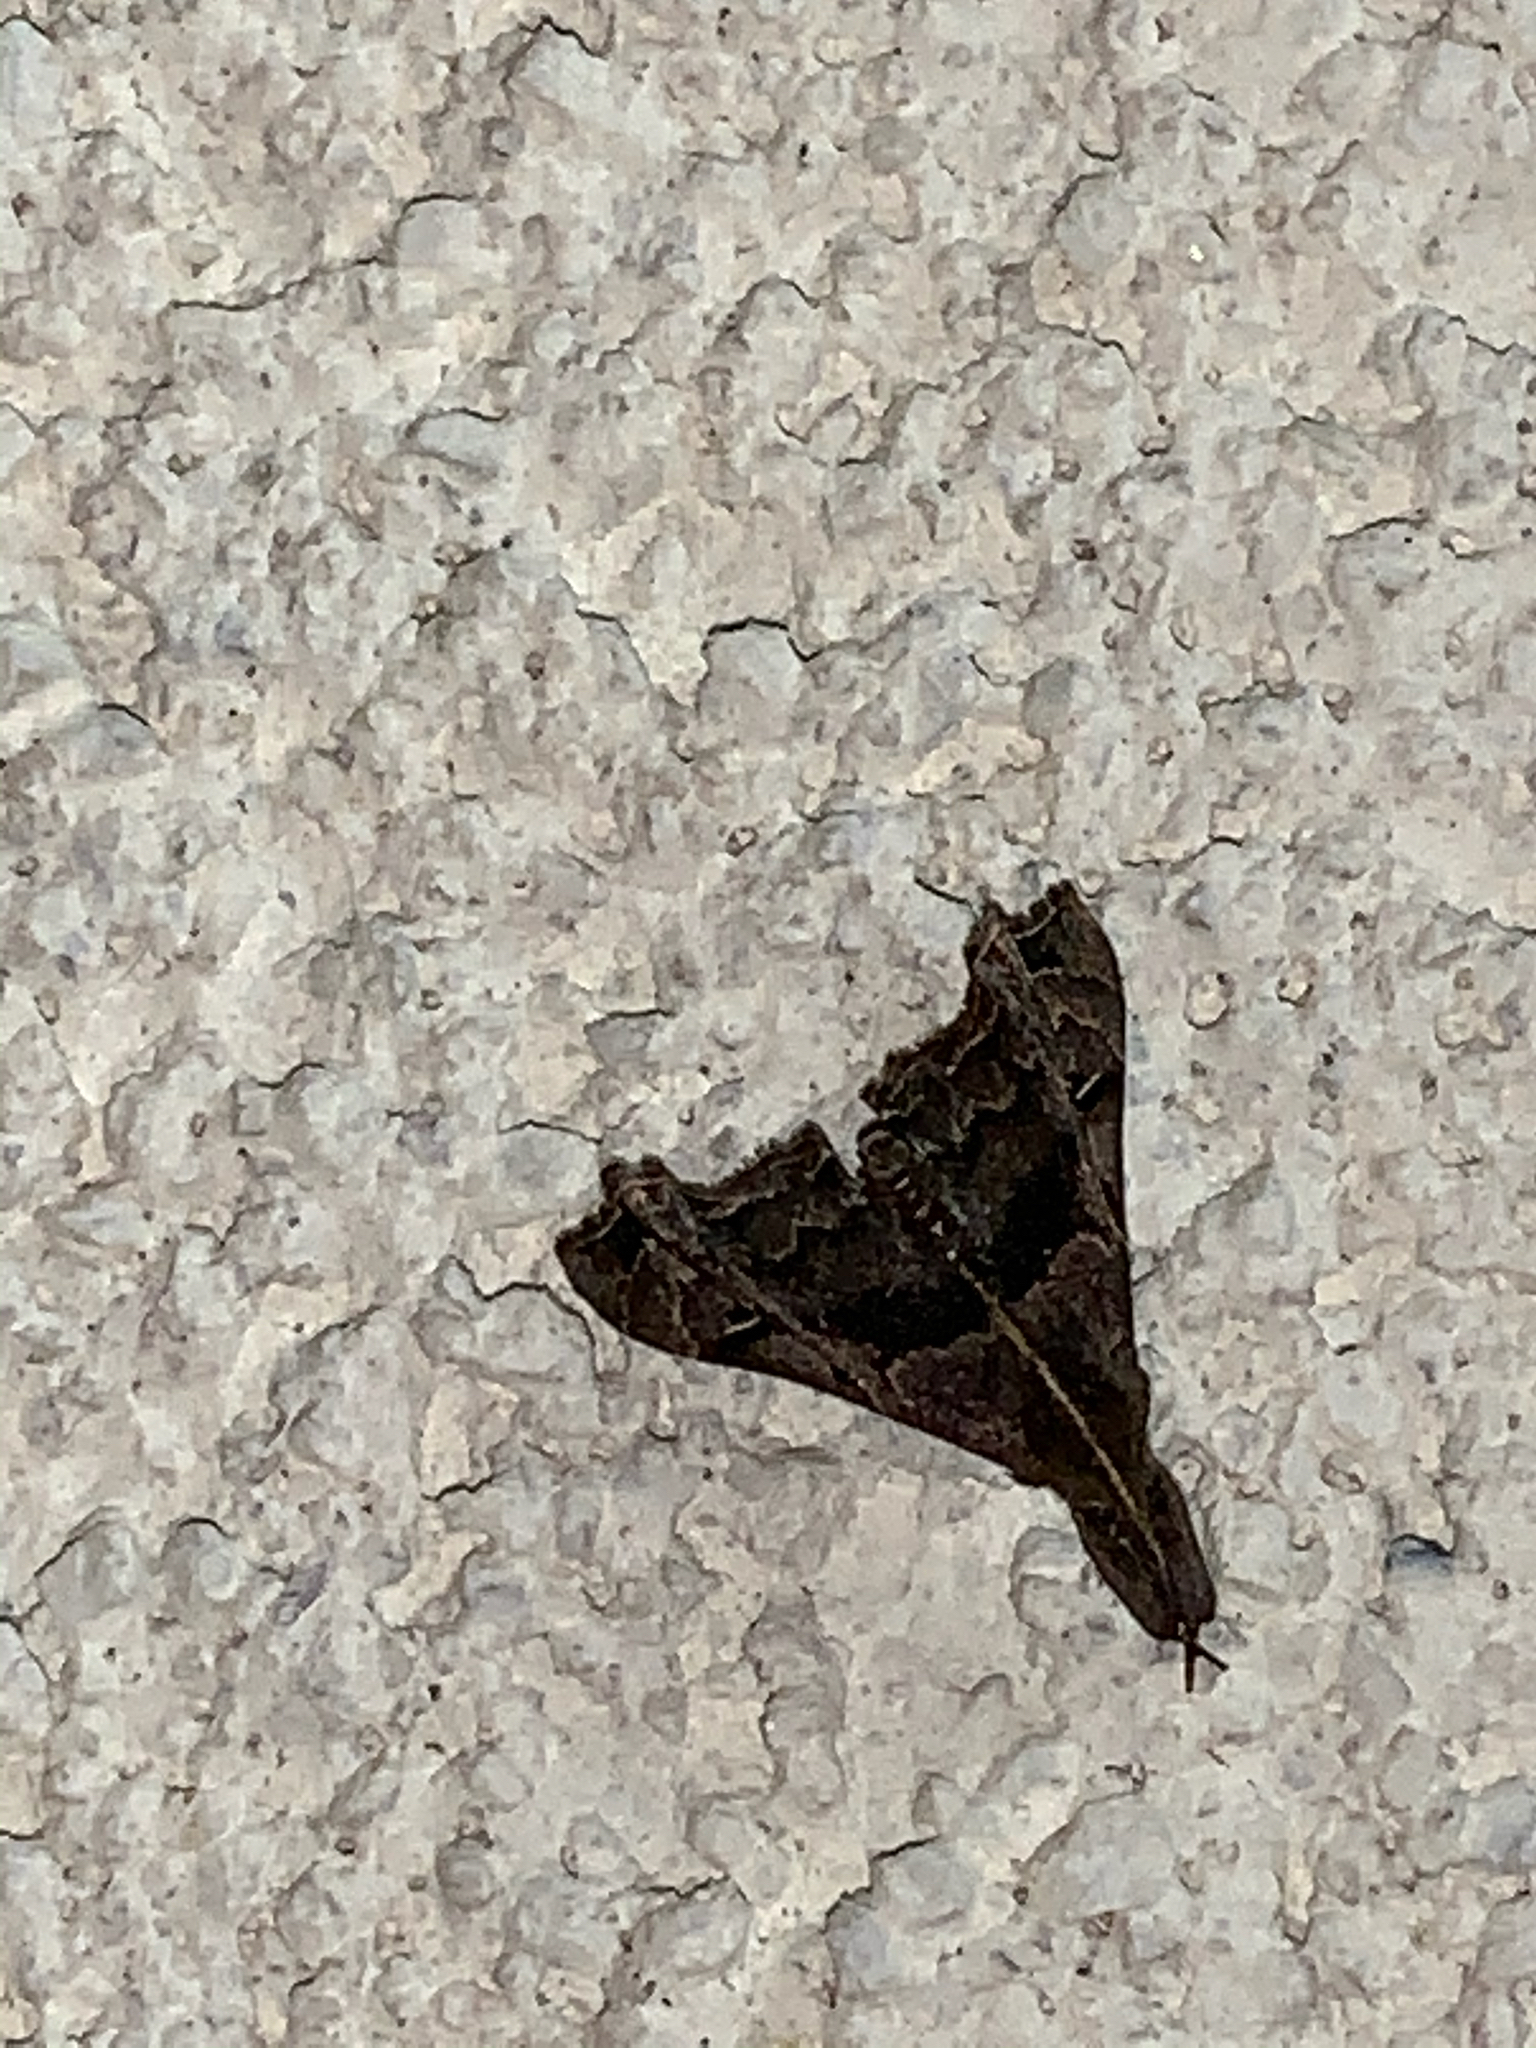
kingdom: Animalia
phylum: Arthropoda
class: Insecta
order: Lepidoptera
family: Erebidae
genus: Palthis
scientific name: Palthis asopialis
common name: Faint-spotted palthis moth
